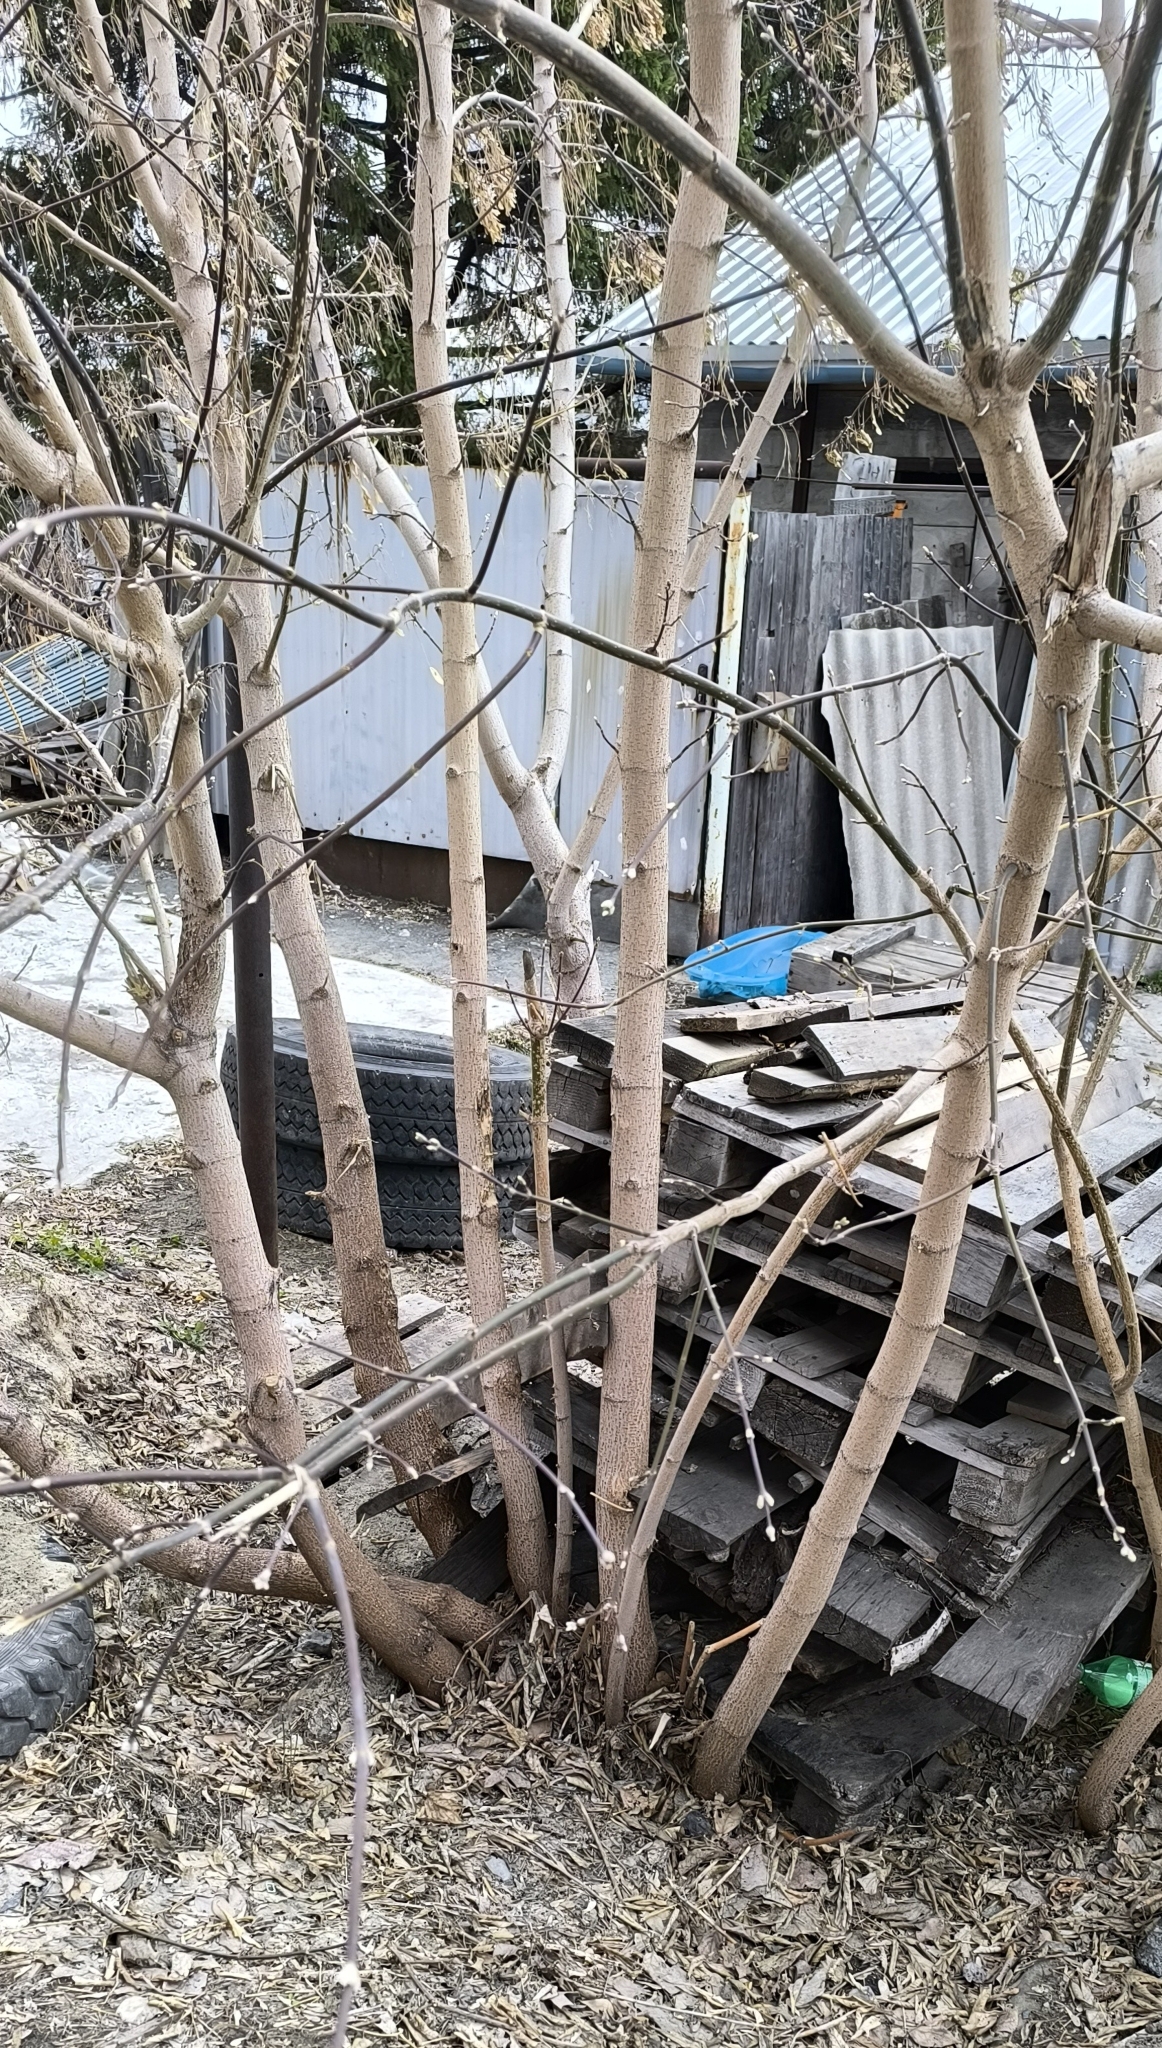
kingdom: Plantae
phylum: Tracheophyta
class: Magnoliopsida
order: Sapindales
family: Sapindaceae
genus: Acer
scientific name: Acer negundo
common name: Ashleaf maple
